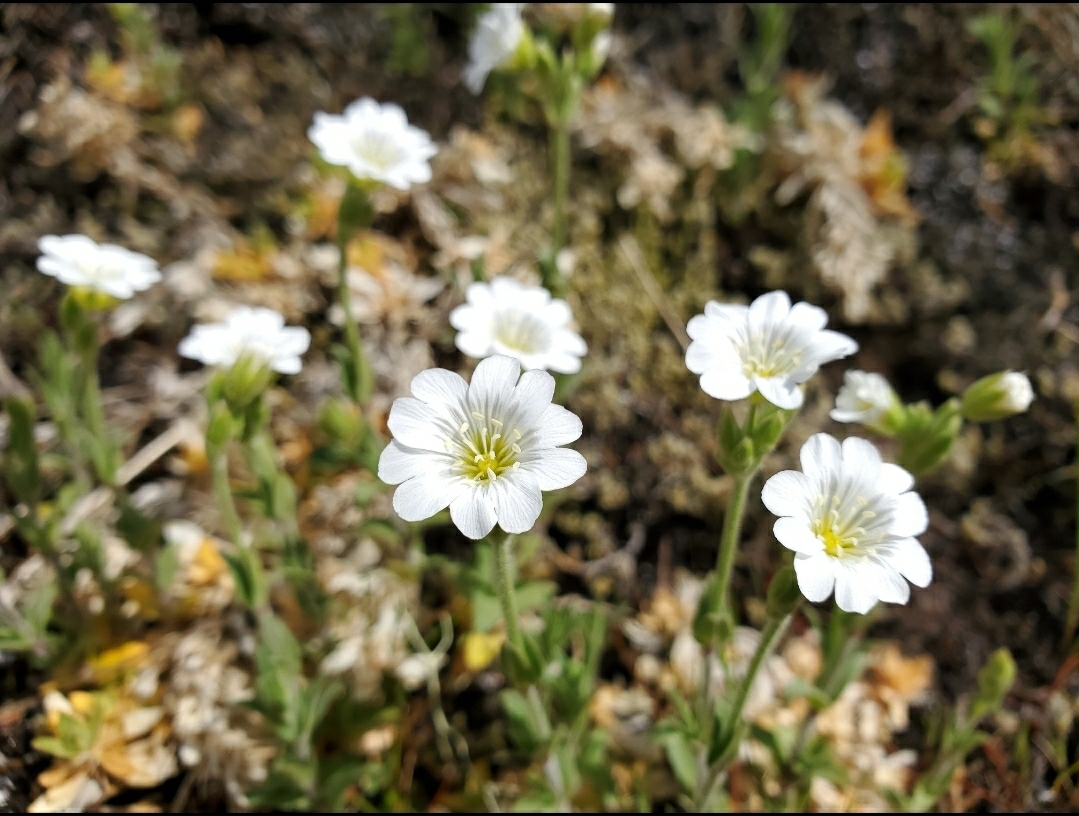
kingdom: Plantae
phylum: Tracheophyta
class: Magnoliopsida
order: Caryophyllales
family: Caryophyllaceae
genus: Cerastium
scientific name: Cerastium arvense
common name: Field mouse-ear
